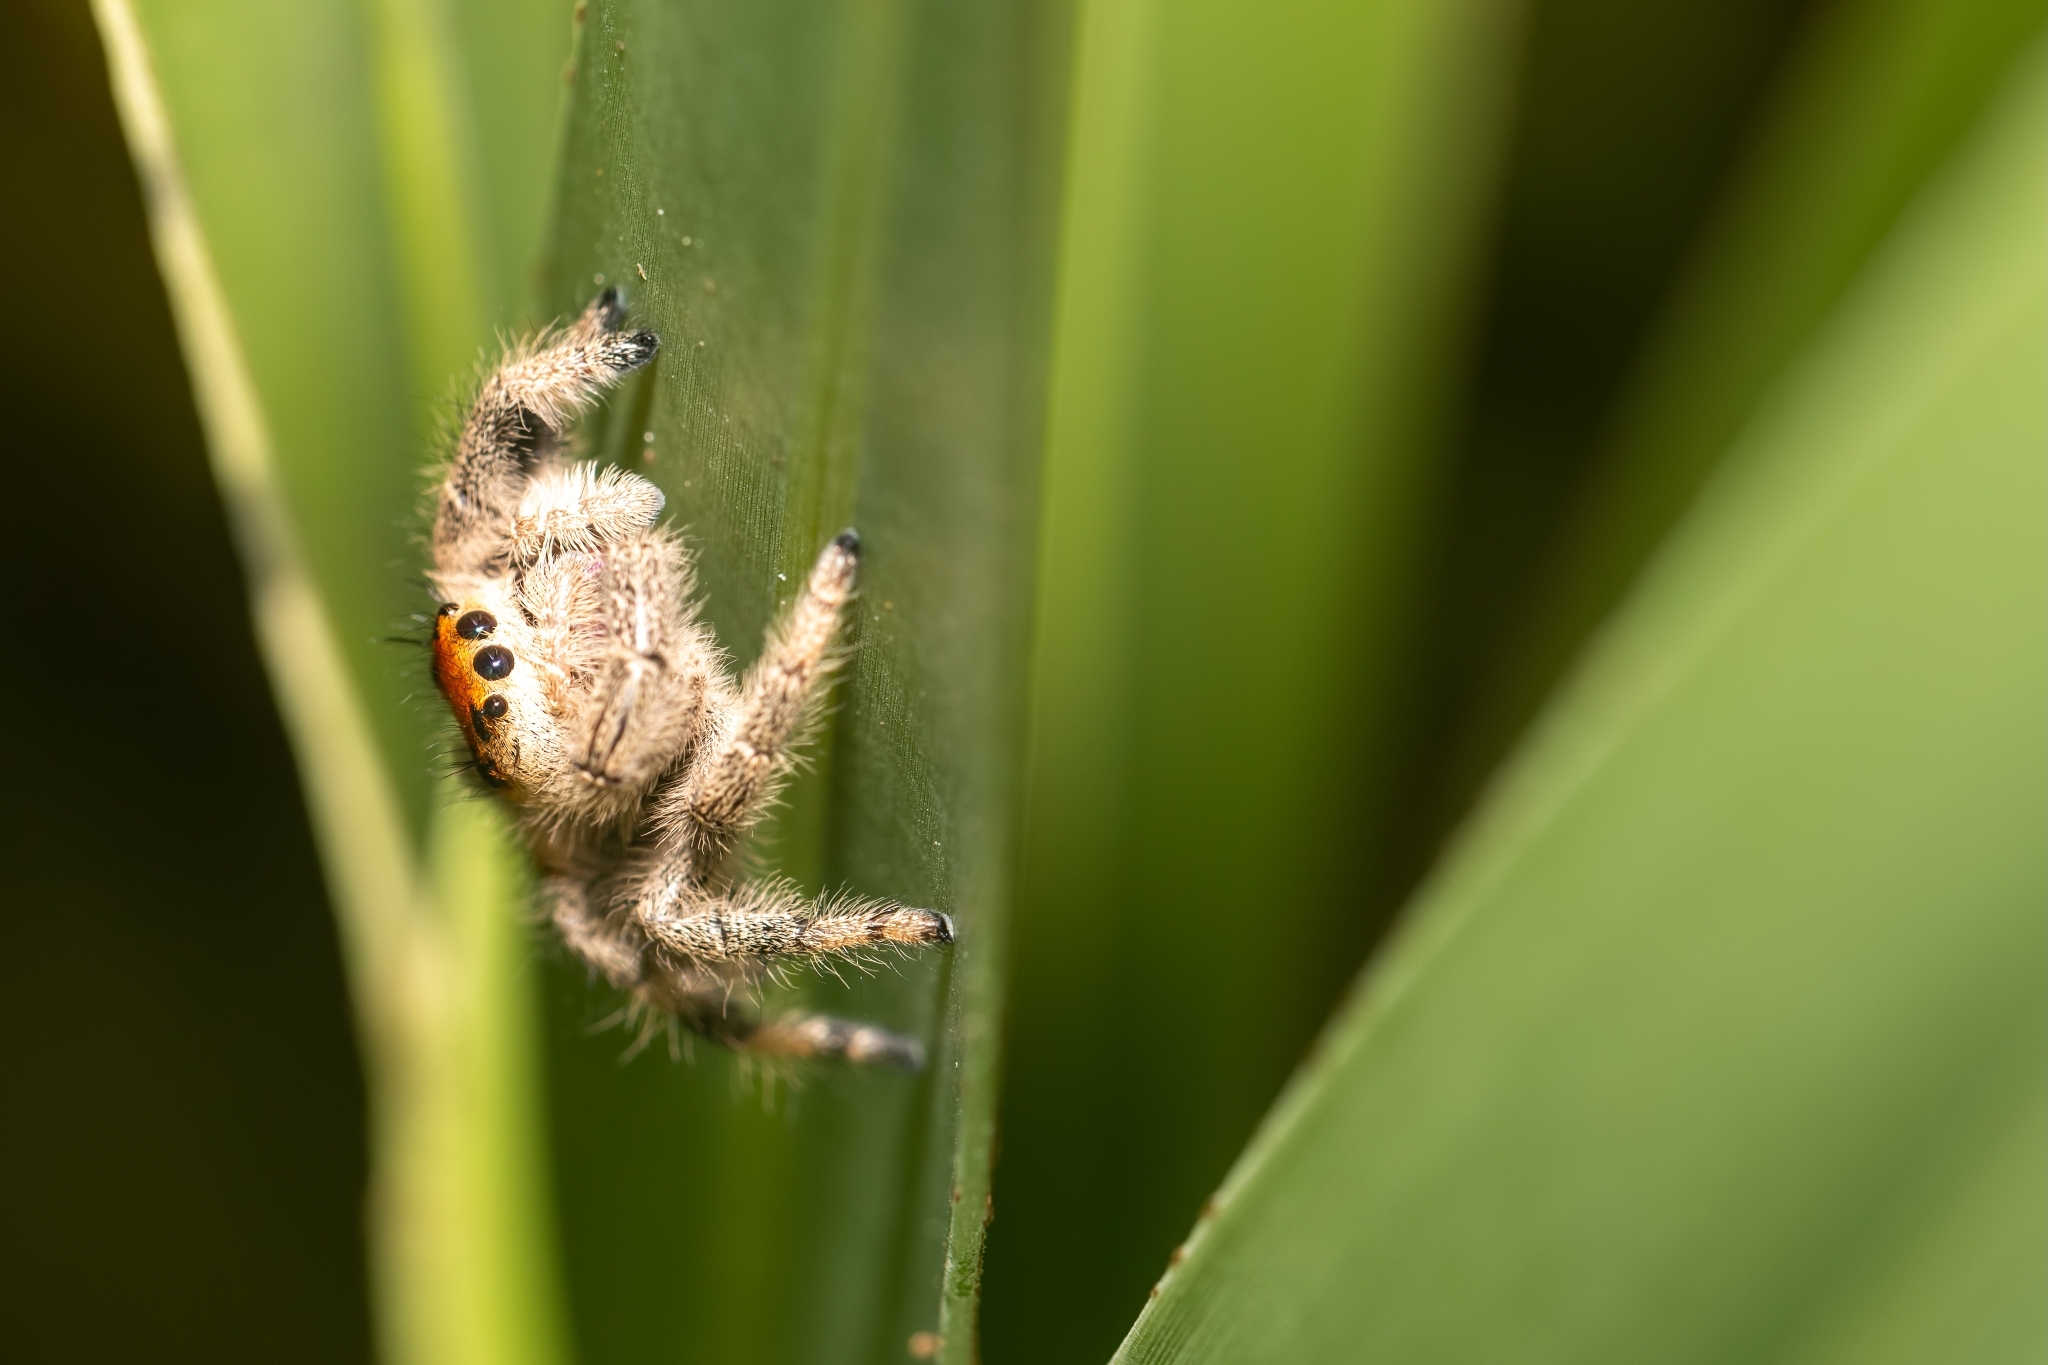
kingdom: Animalia
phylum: Arthropoda
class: Arachnida
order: Araneae
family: Salticidae
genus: Phidippus
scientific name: Phidippus regius
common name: Regal jumper
